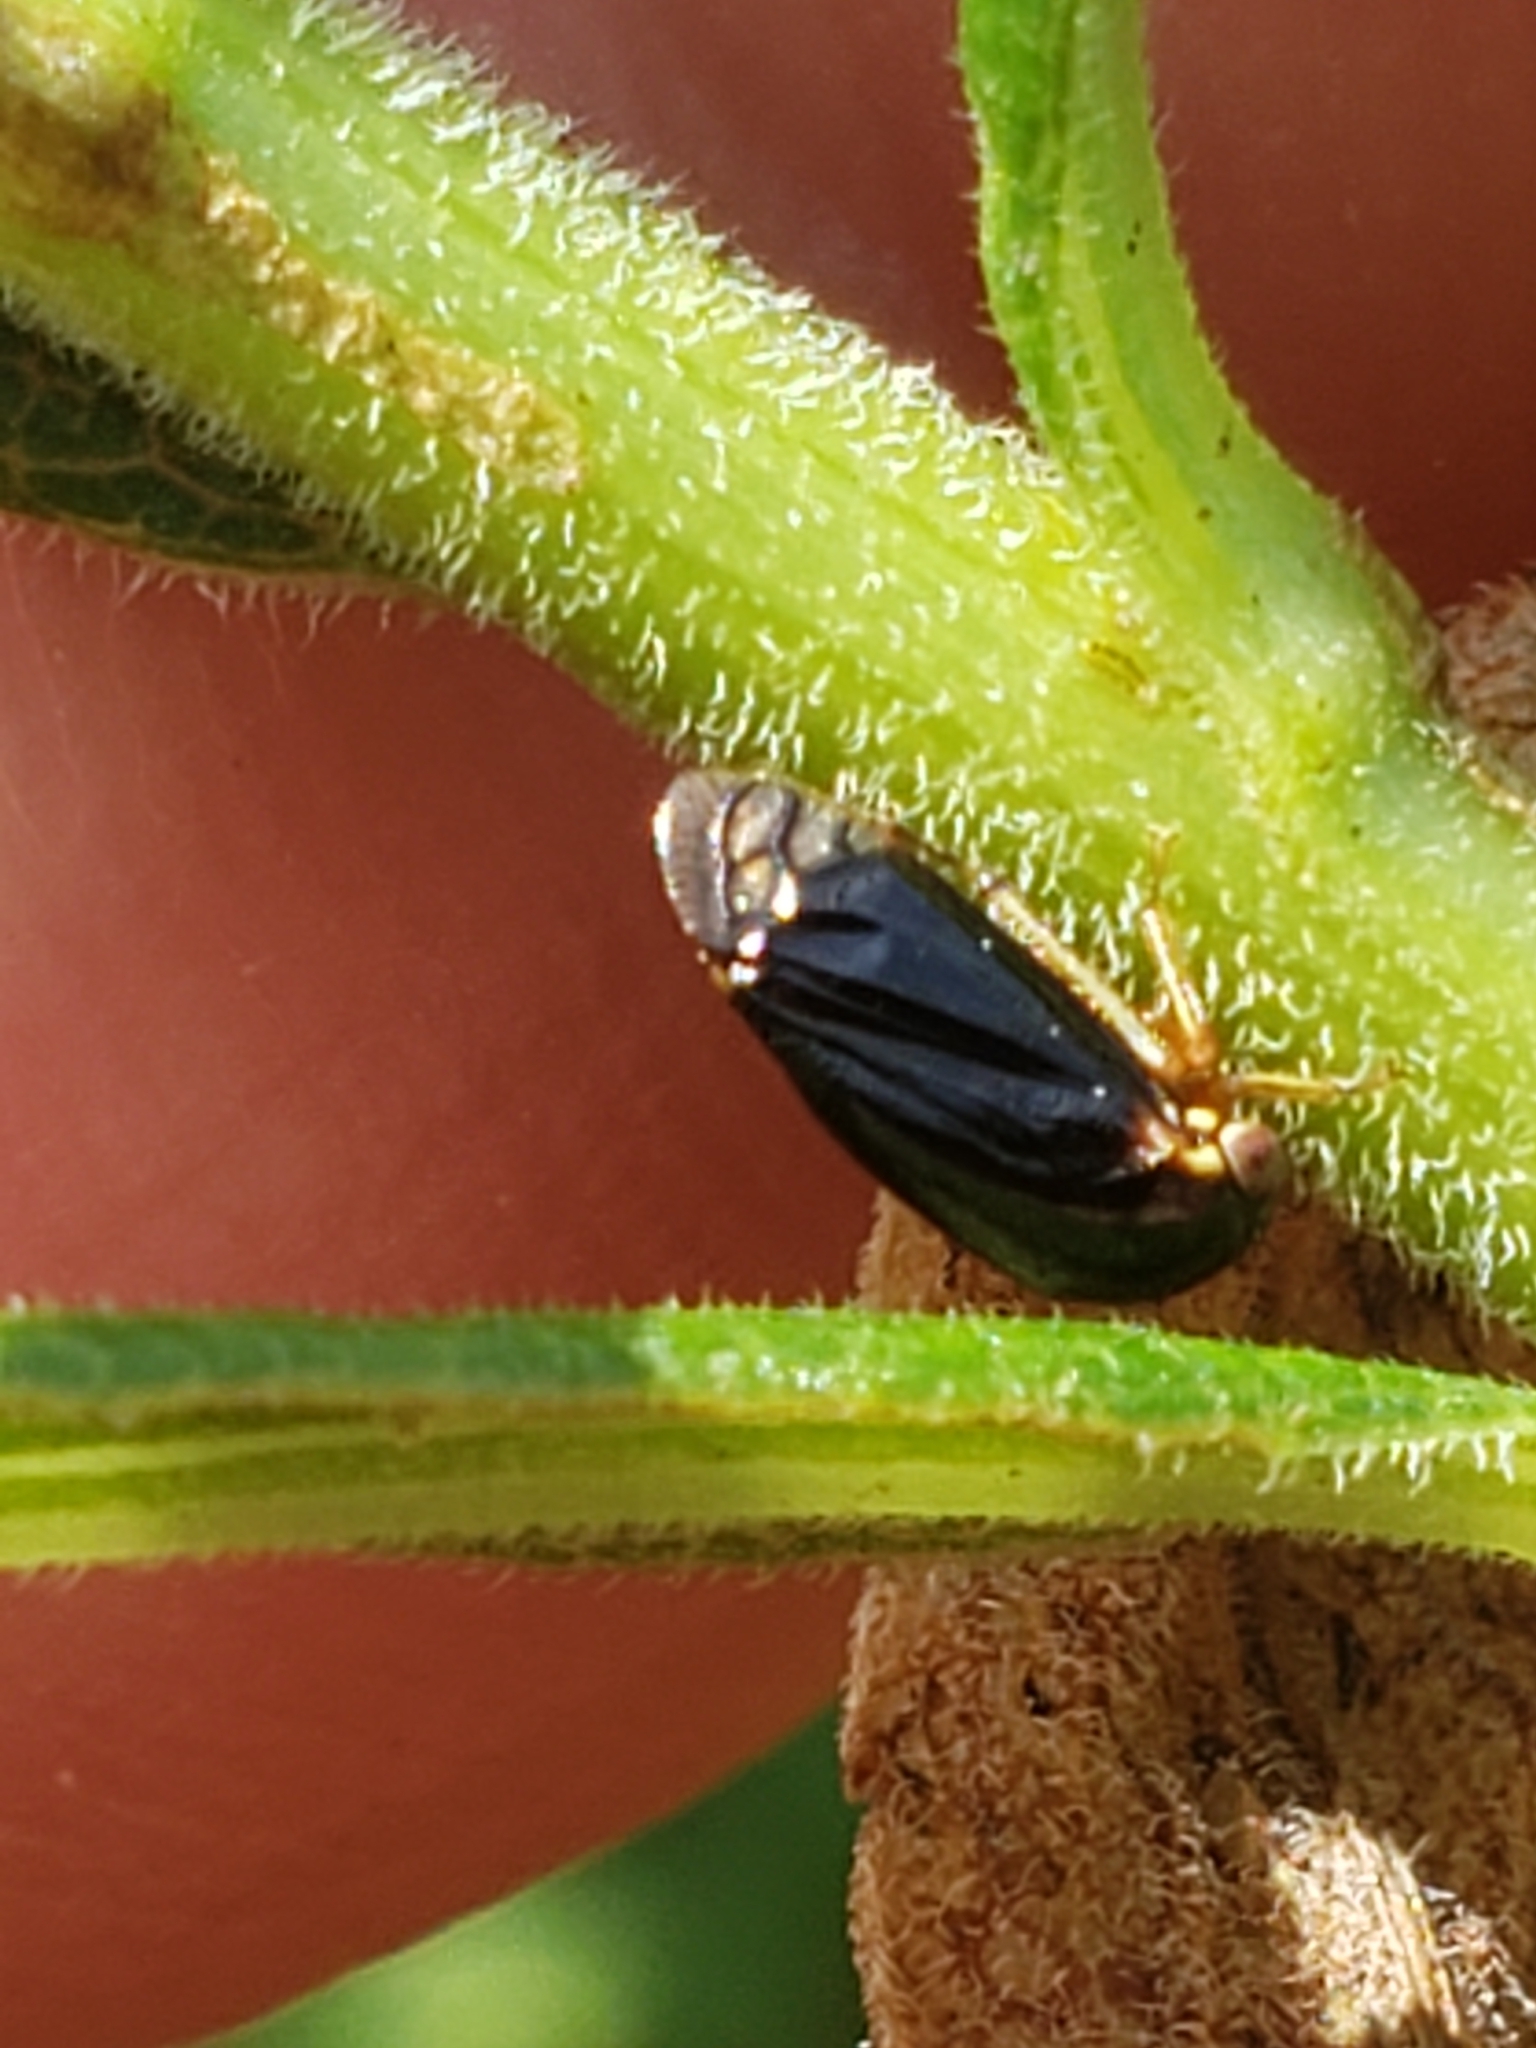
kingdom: Animalia
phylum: Arthropoda
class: Insecta
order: Hemiptera
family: Membracidae
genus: Acutalis
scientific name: Acutalis tartarea
